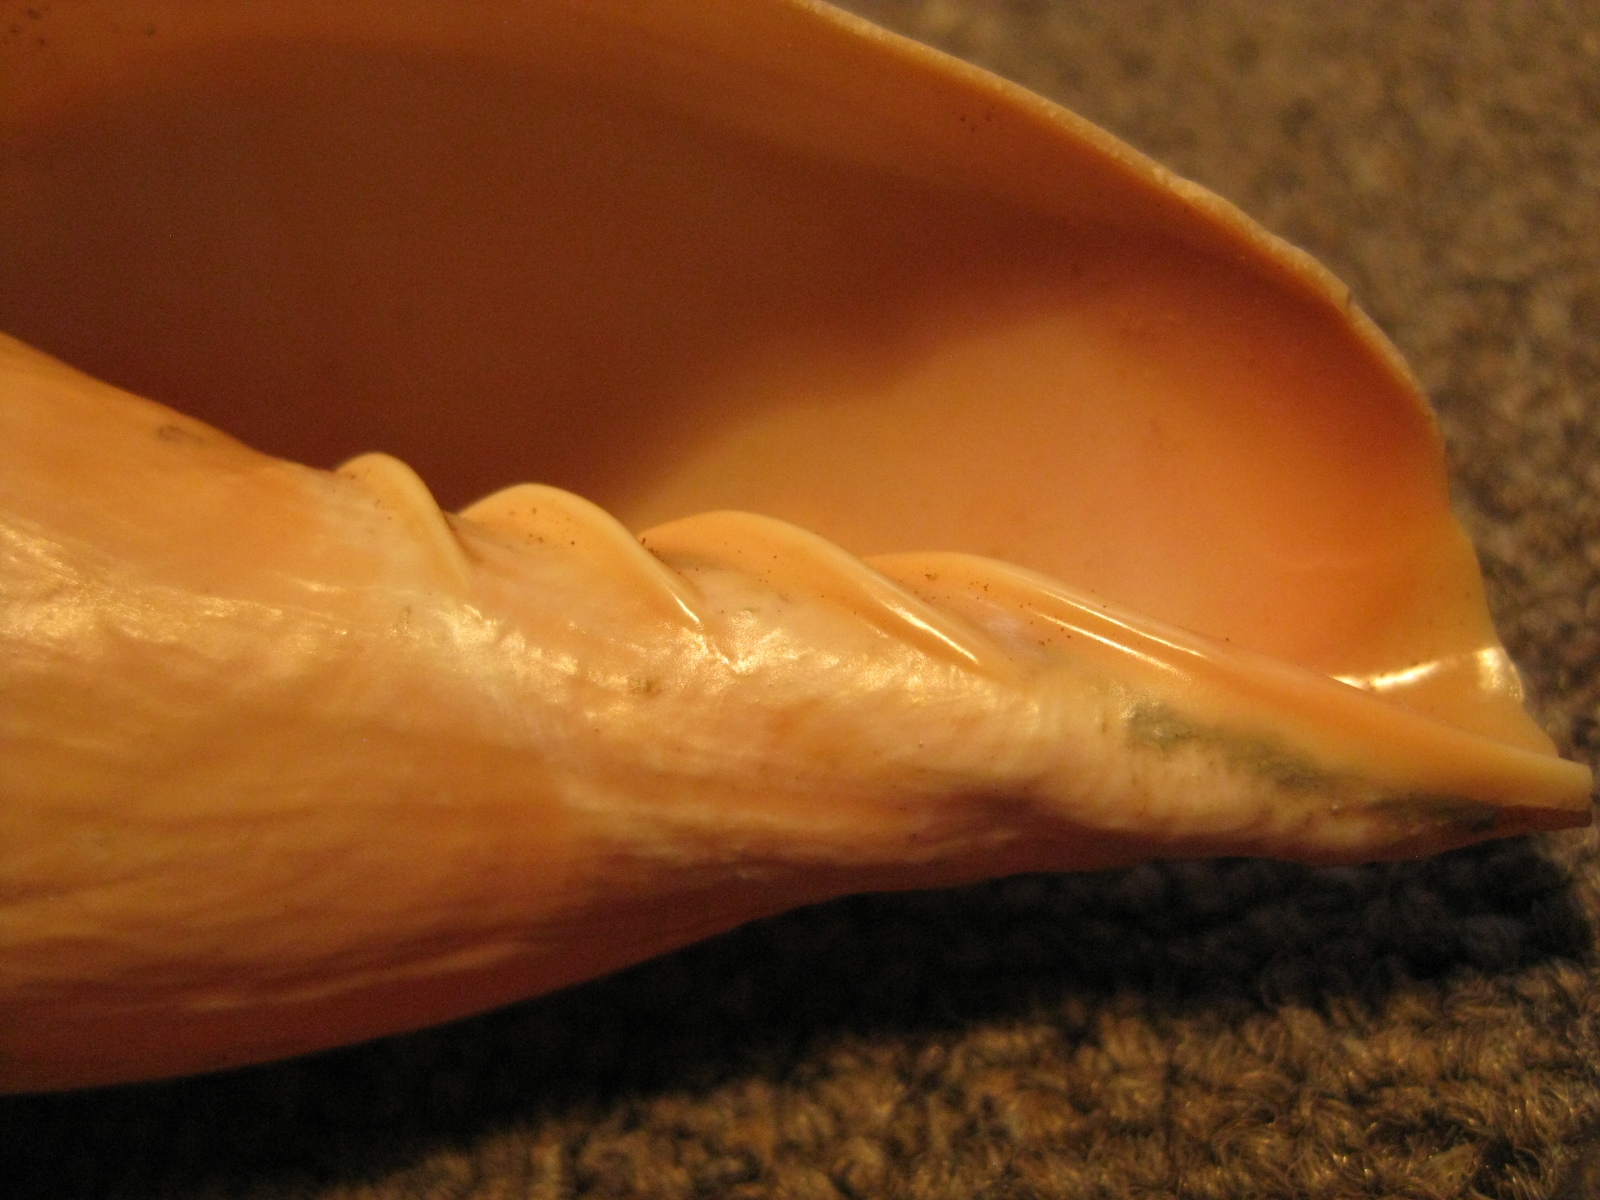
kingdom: Animalia
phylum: Mollusca
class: Gastropoda
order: Neogastropoda
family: Volutidae
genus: Alcithoe
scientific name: Alcithoe larochei
